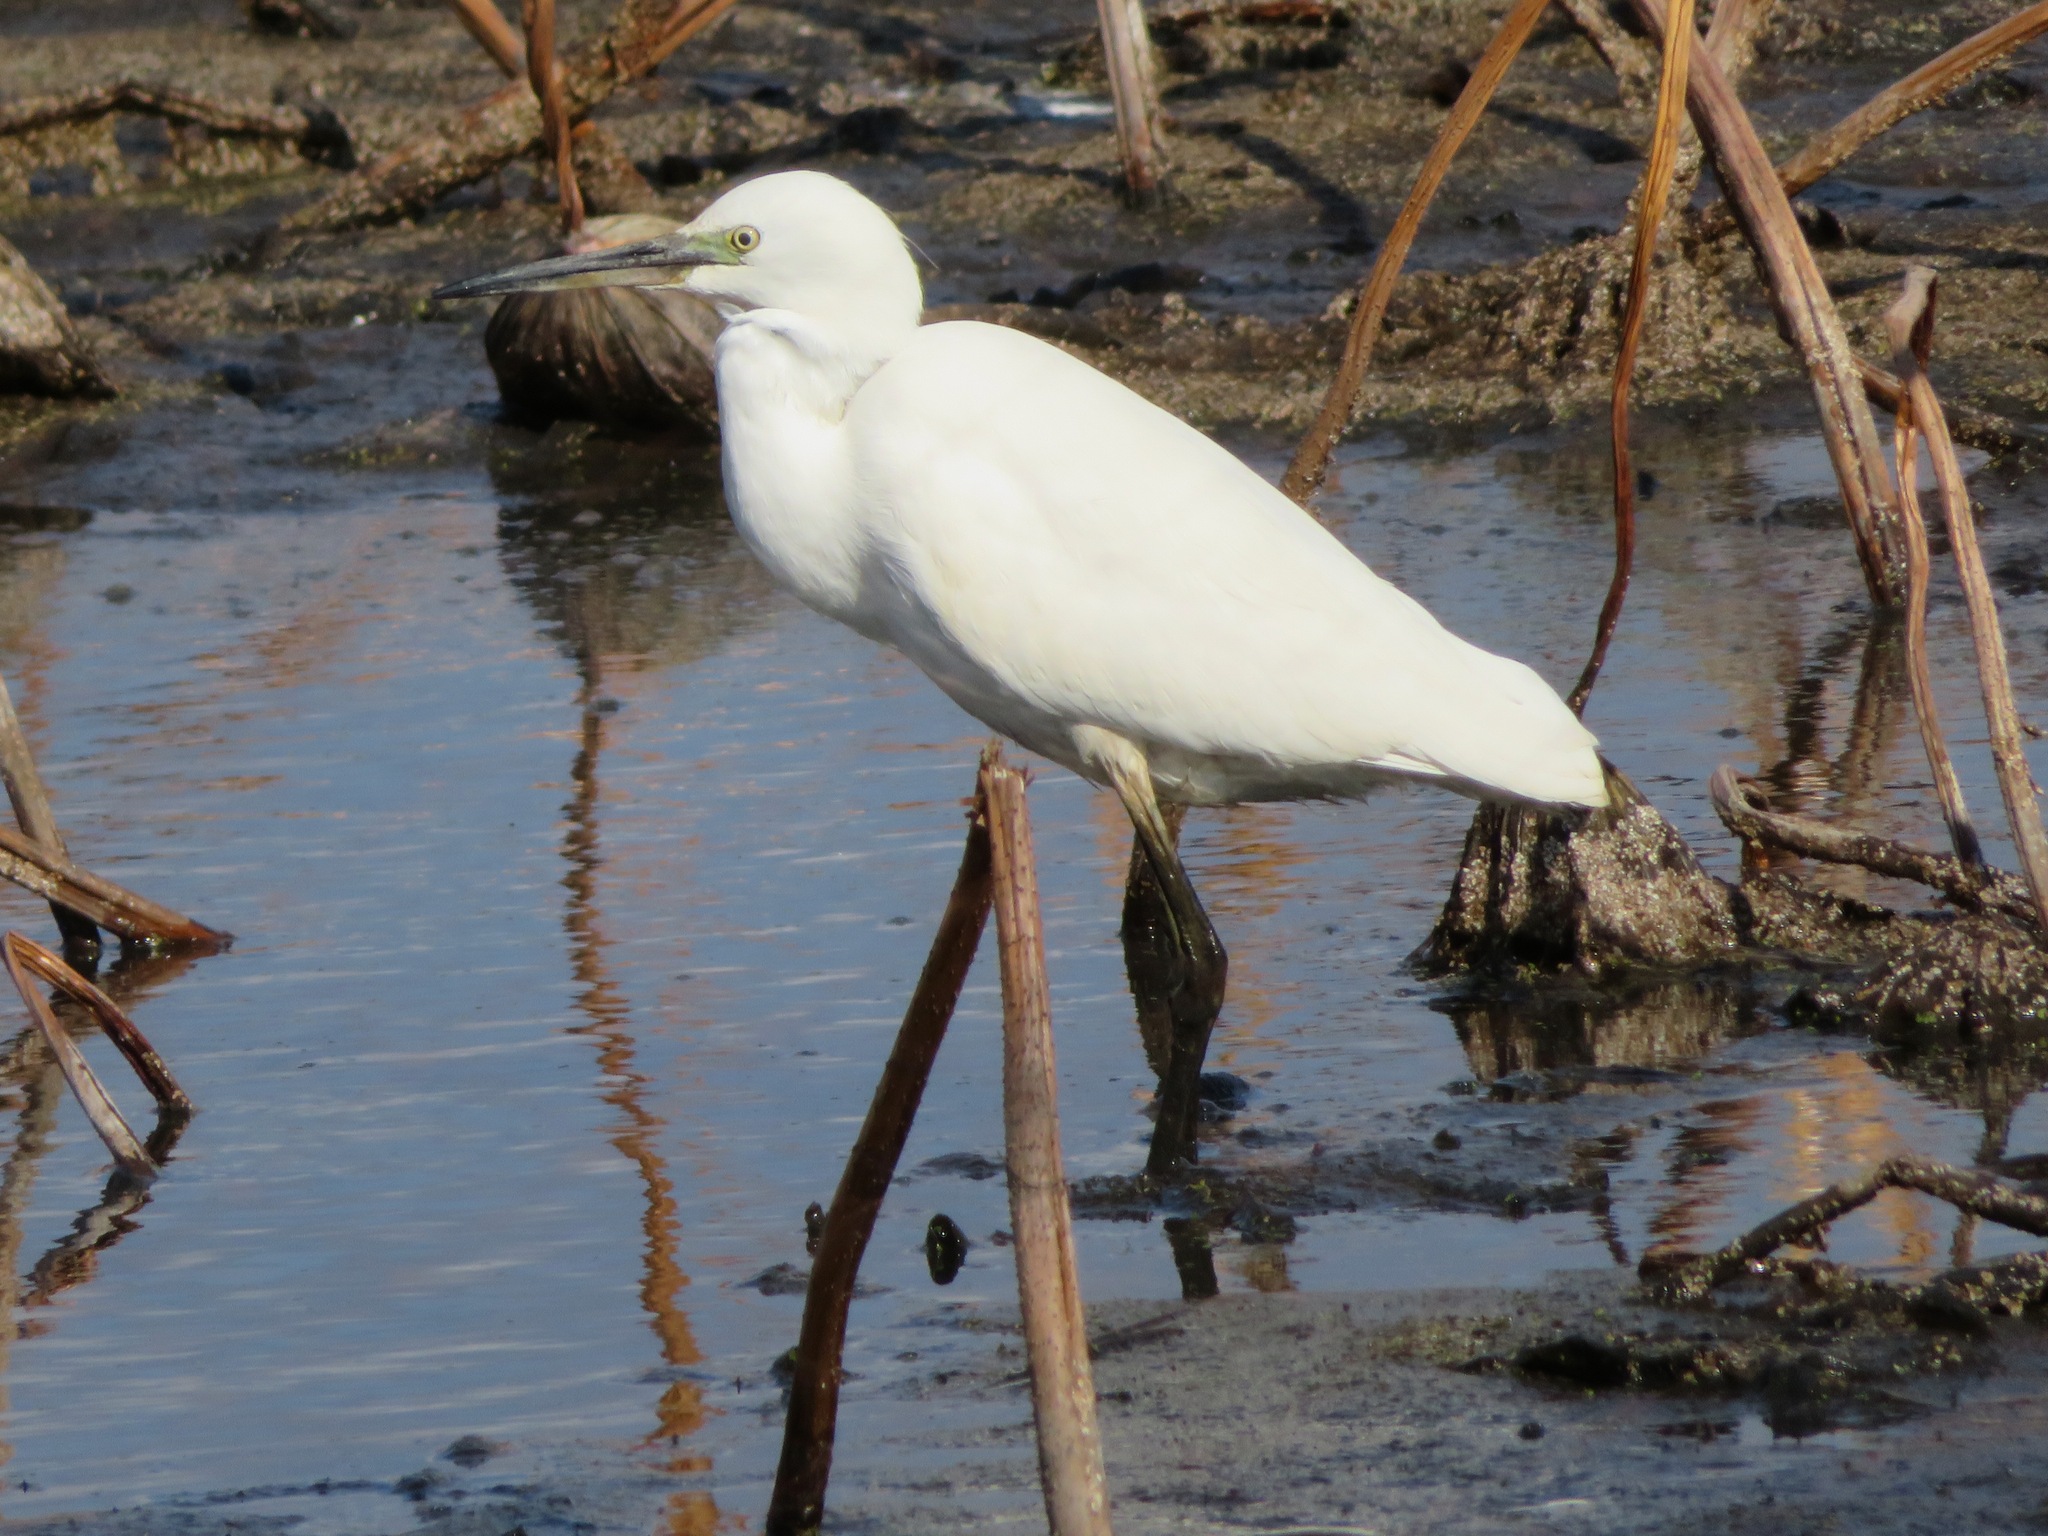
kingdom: Animalia
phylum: Chordata
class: Aves
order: Pelecaniformes
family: Ardeidae
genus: Egretta
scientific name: Egretta garzetta
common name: Little egret
